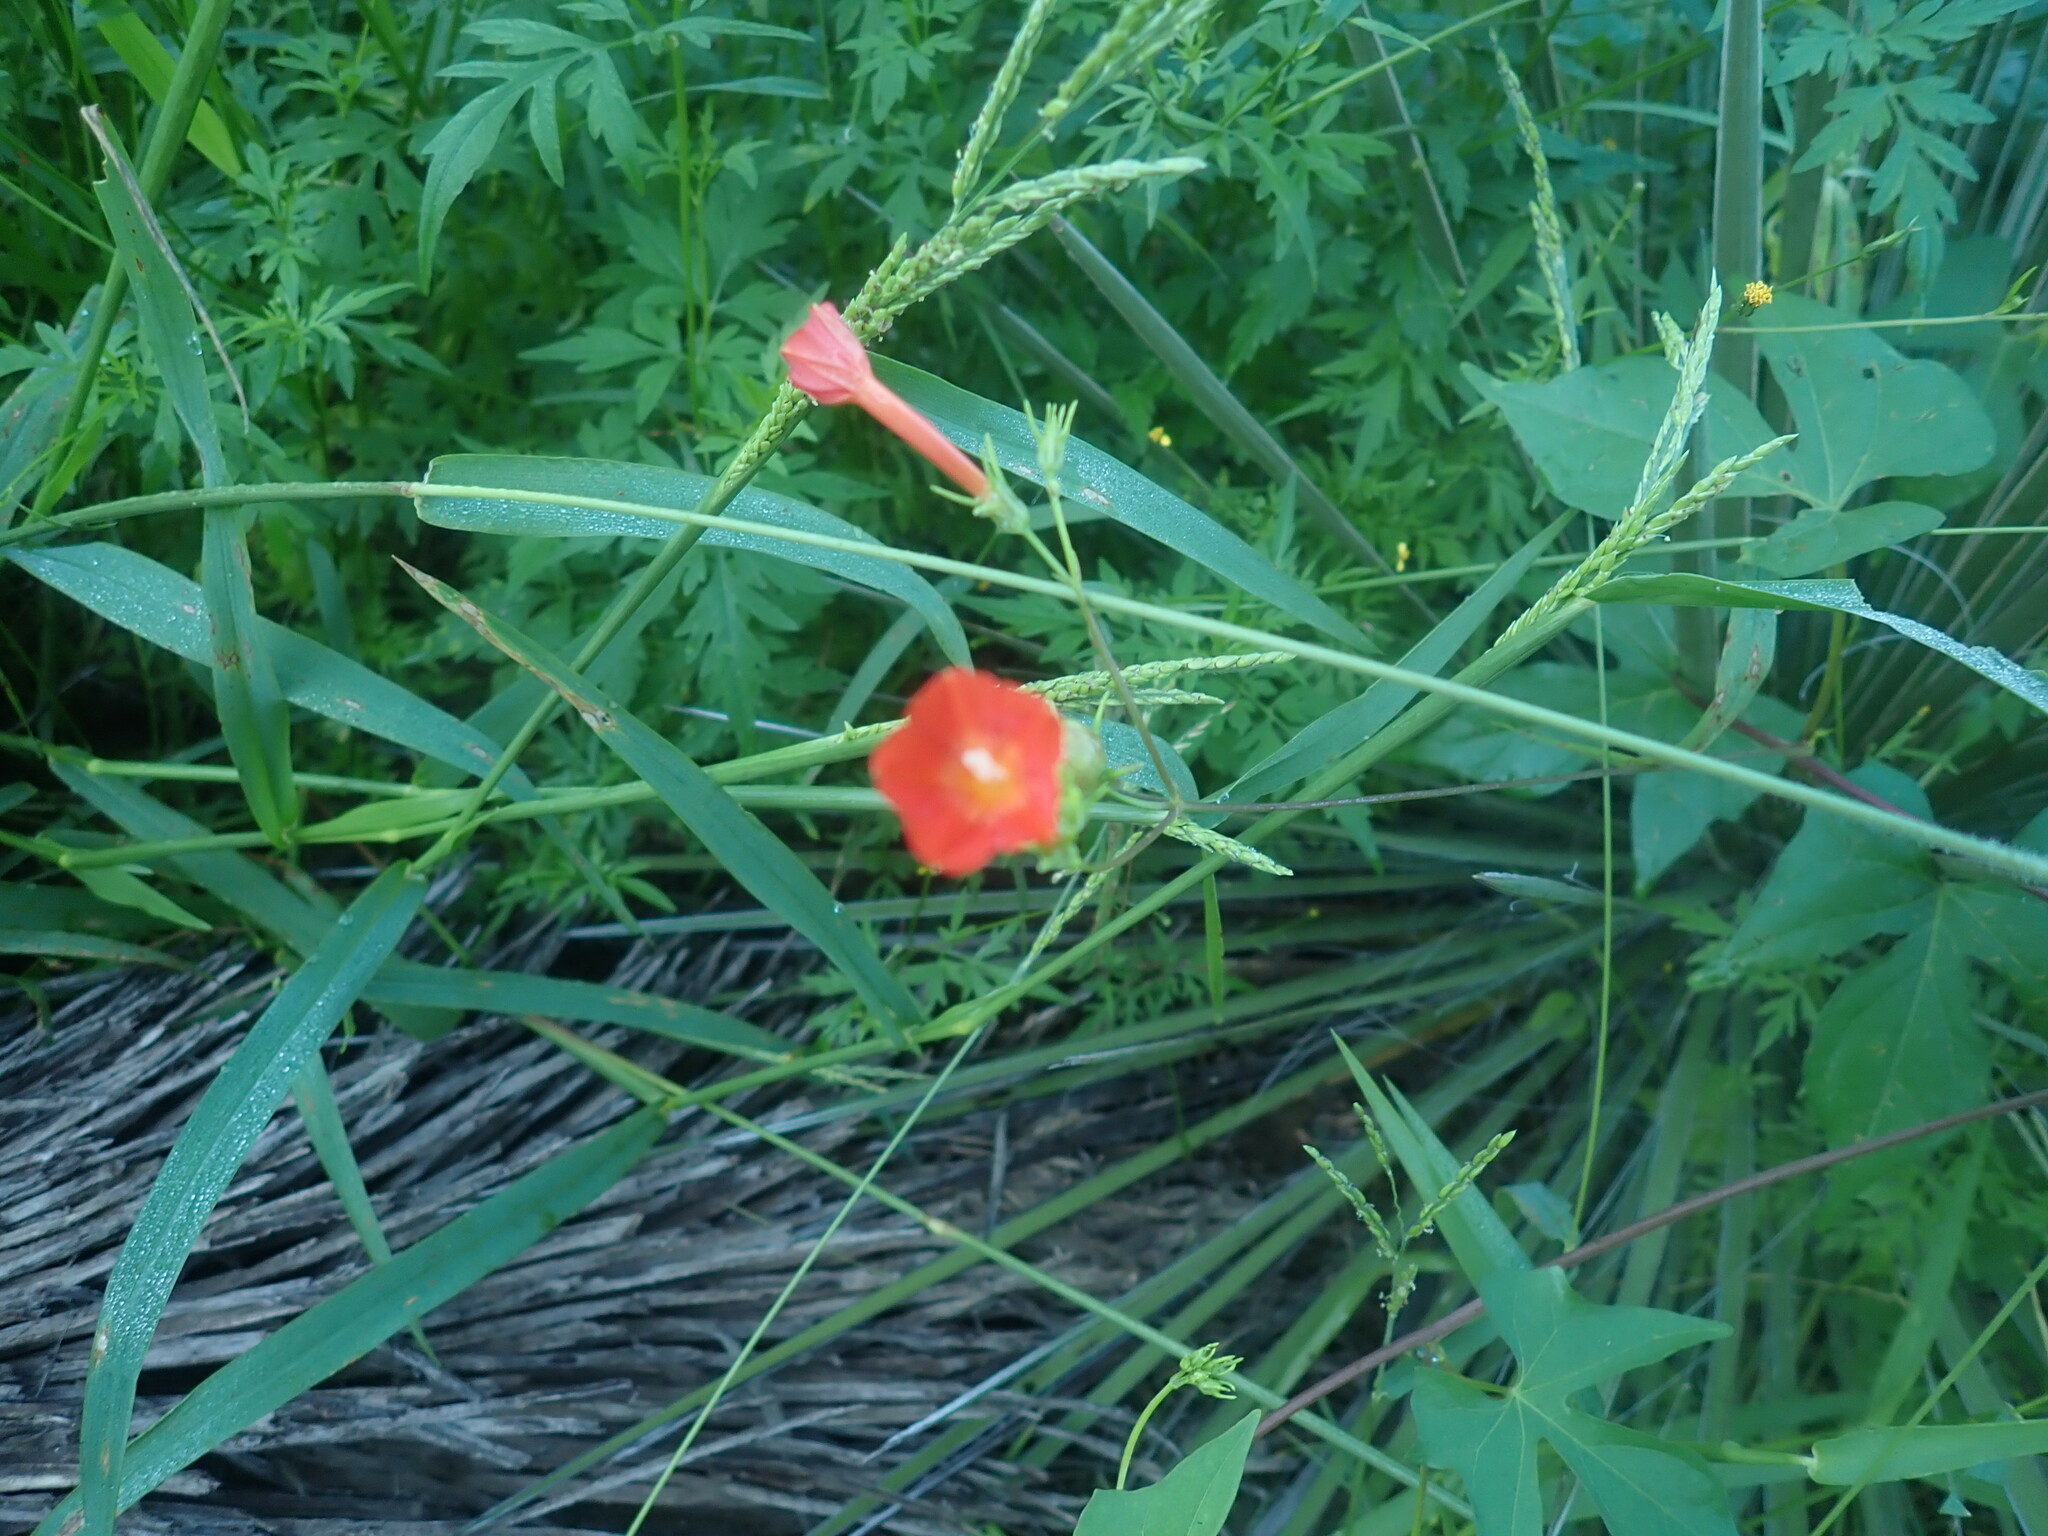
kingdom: Plantae
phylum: Tracheophyta
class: Magnoliopsida
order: Solanales
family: Convolvulaceae
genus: Ipomoea
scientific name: Ipomoea cristulata
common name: Trans-pecos morning-glory
